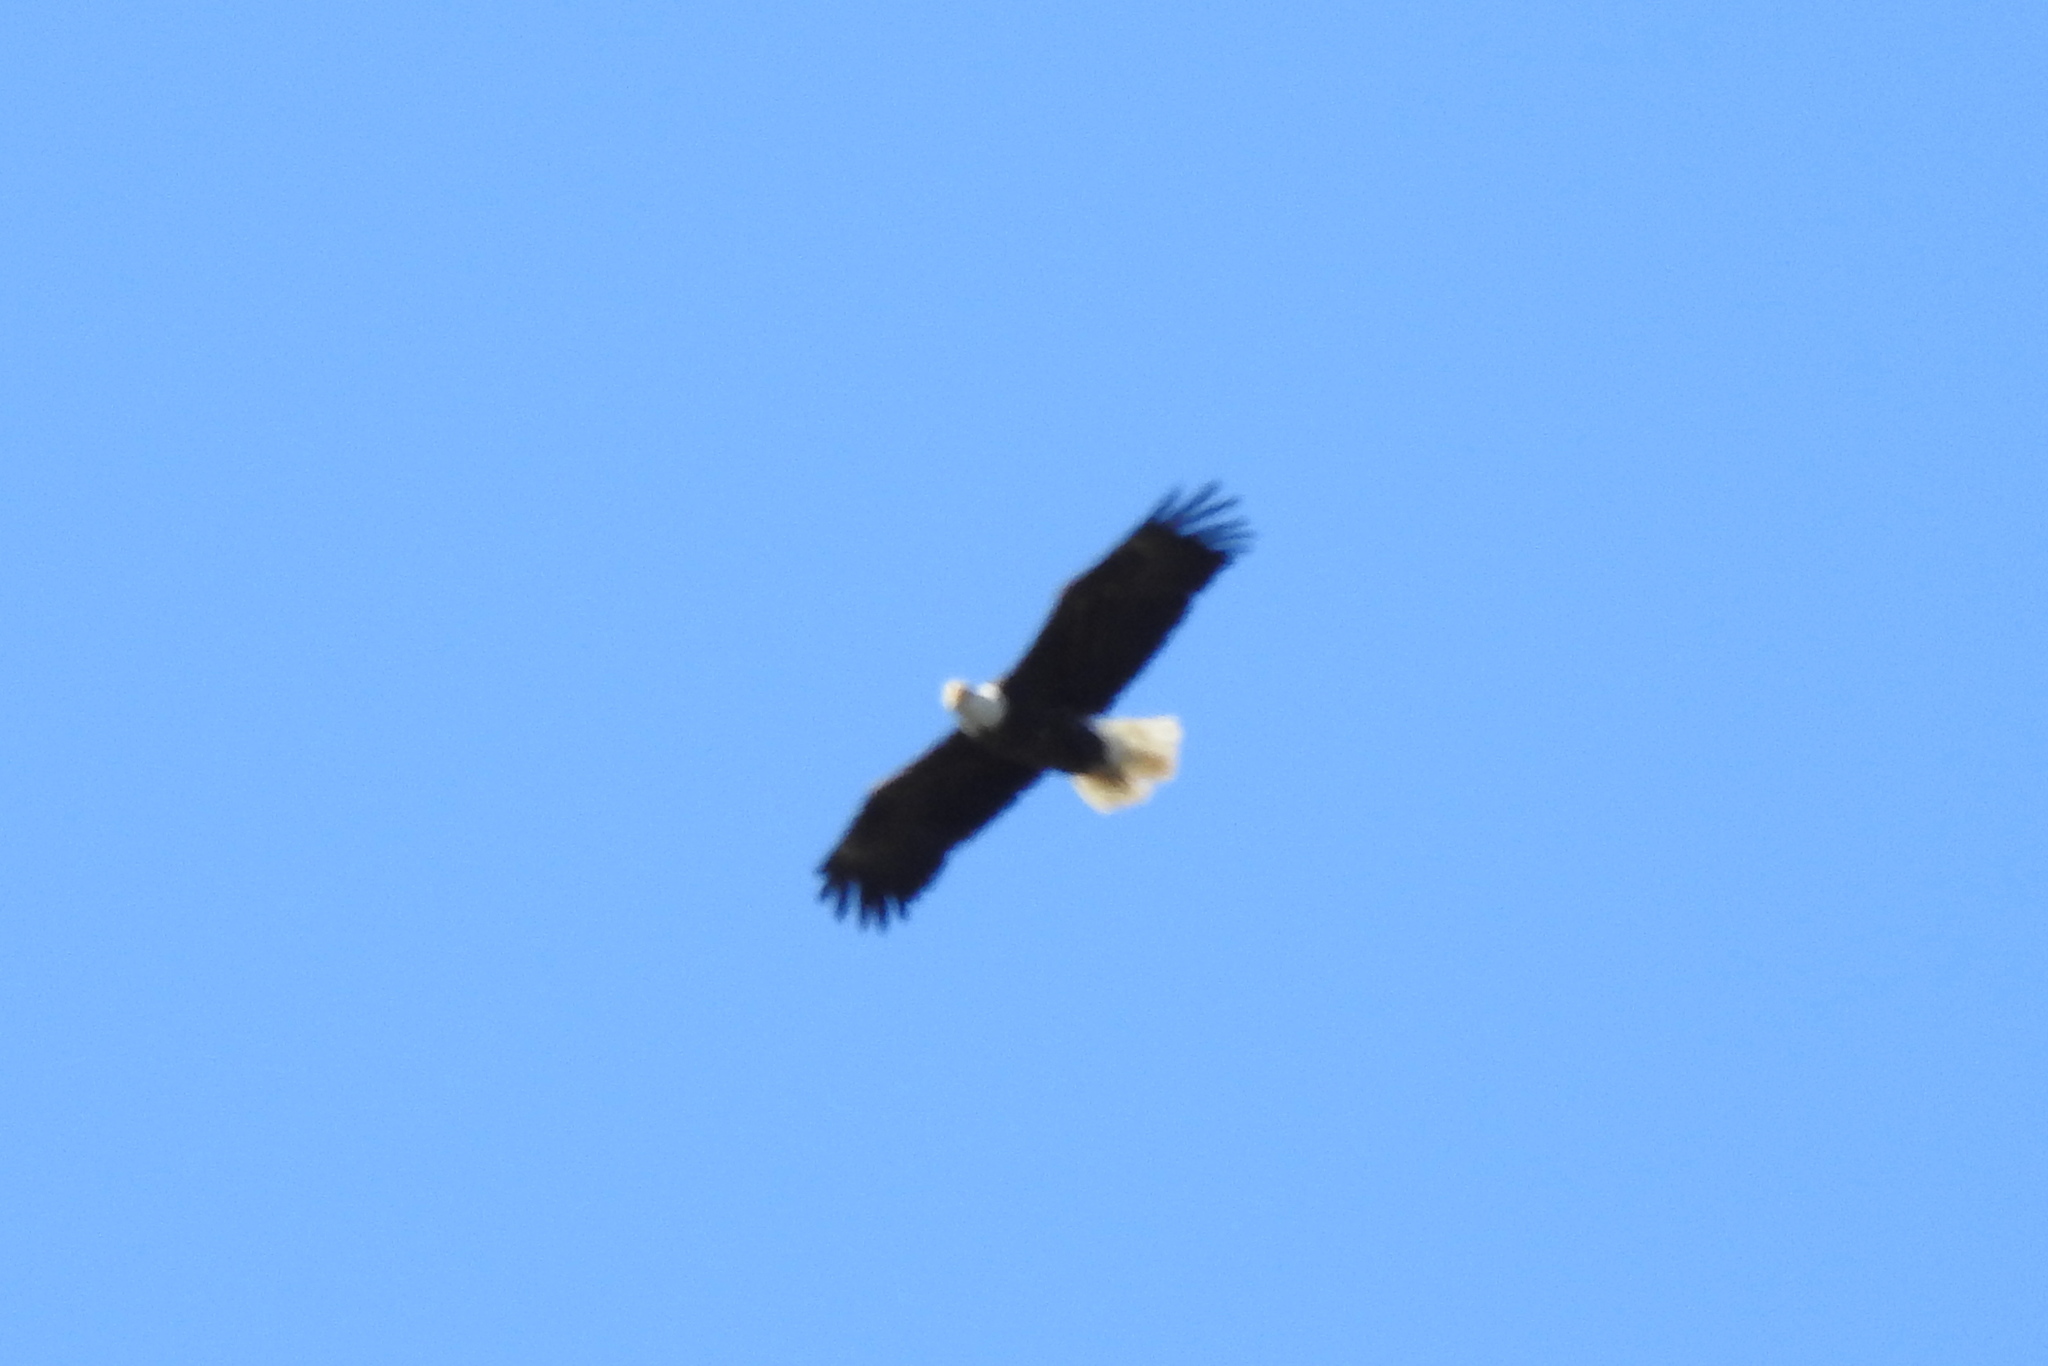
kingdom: Animalia
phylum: Chordata
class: Aves
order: Accipitriformes
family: Accipitridae
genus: Haliaeetus
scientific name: Haliaeetus leucocephalus
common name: Bald eagle
